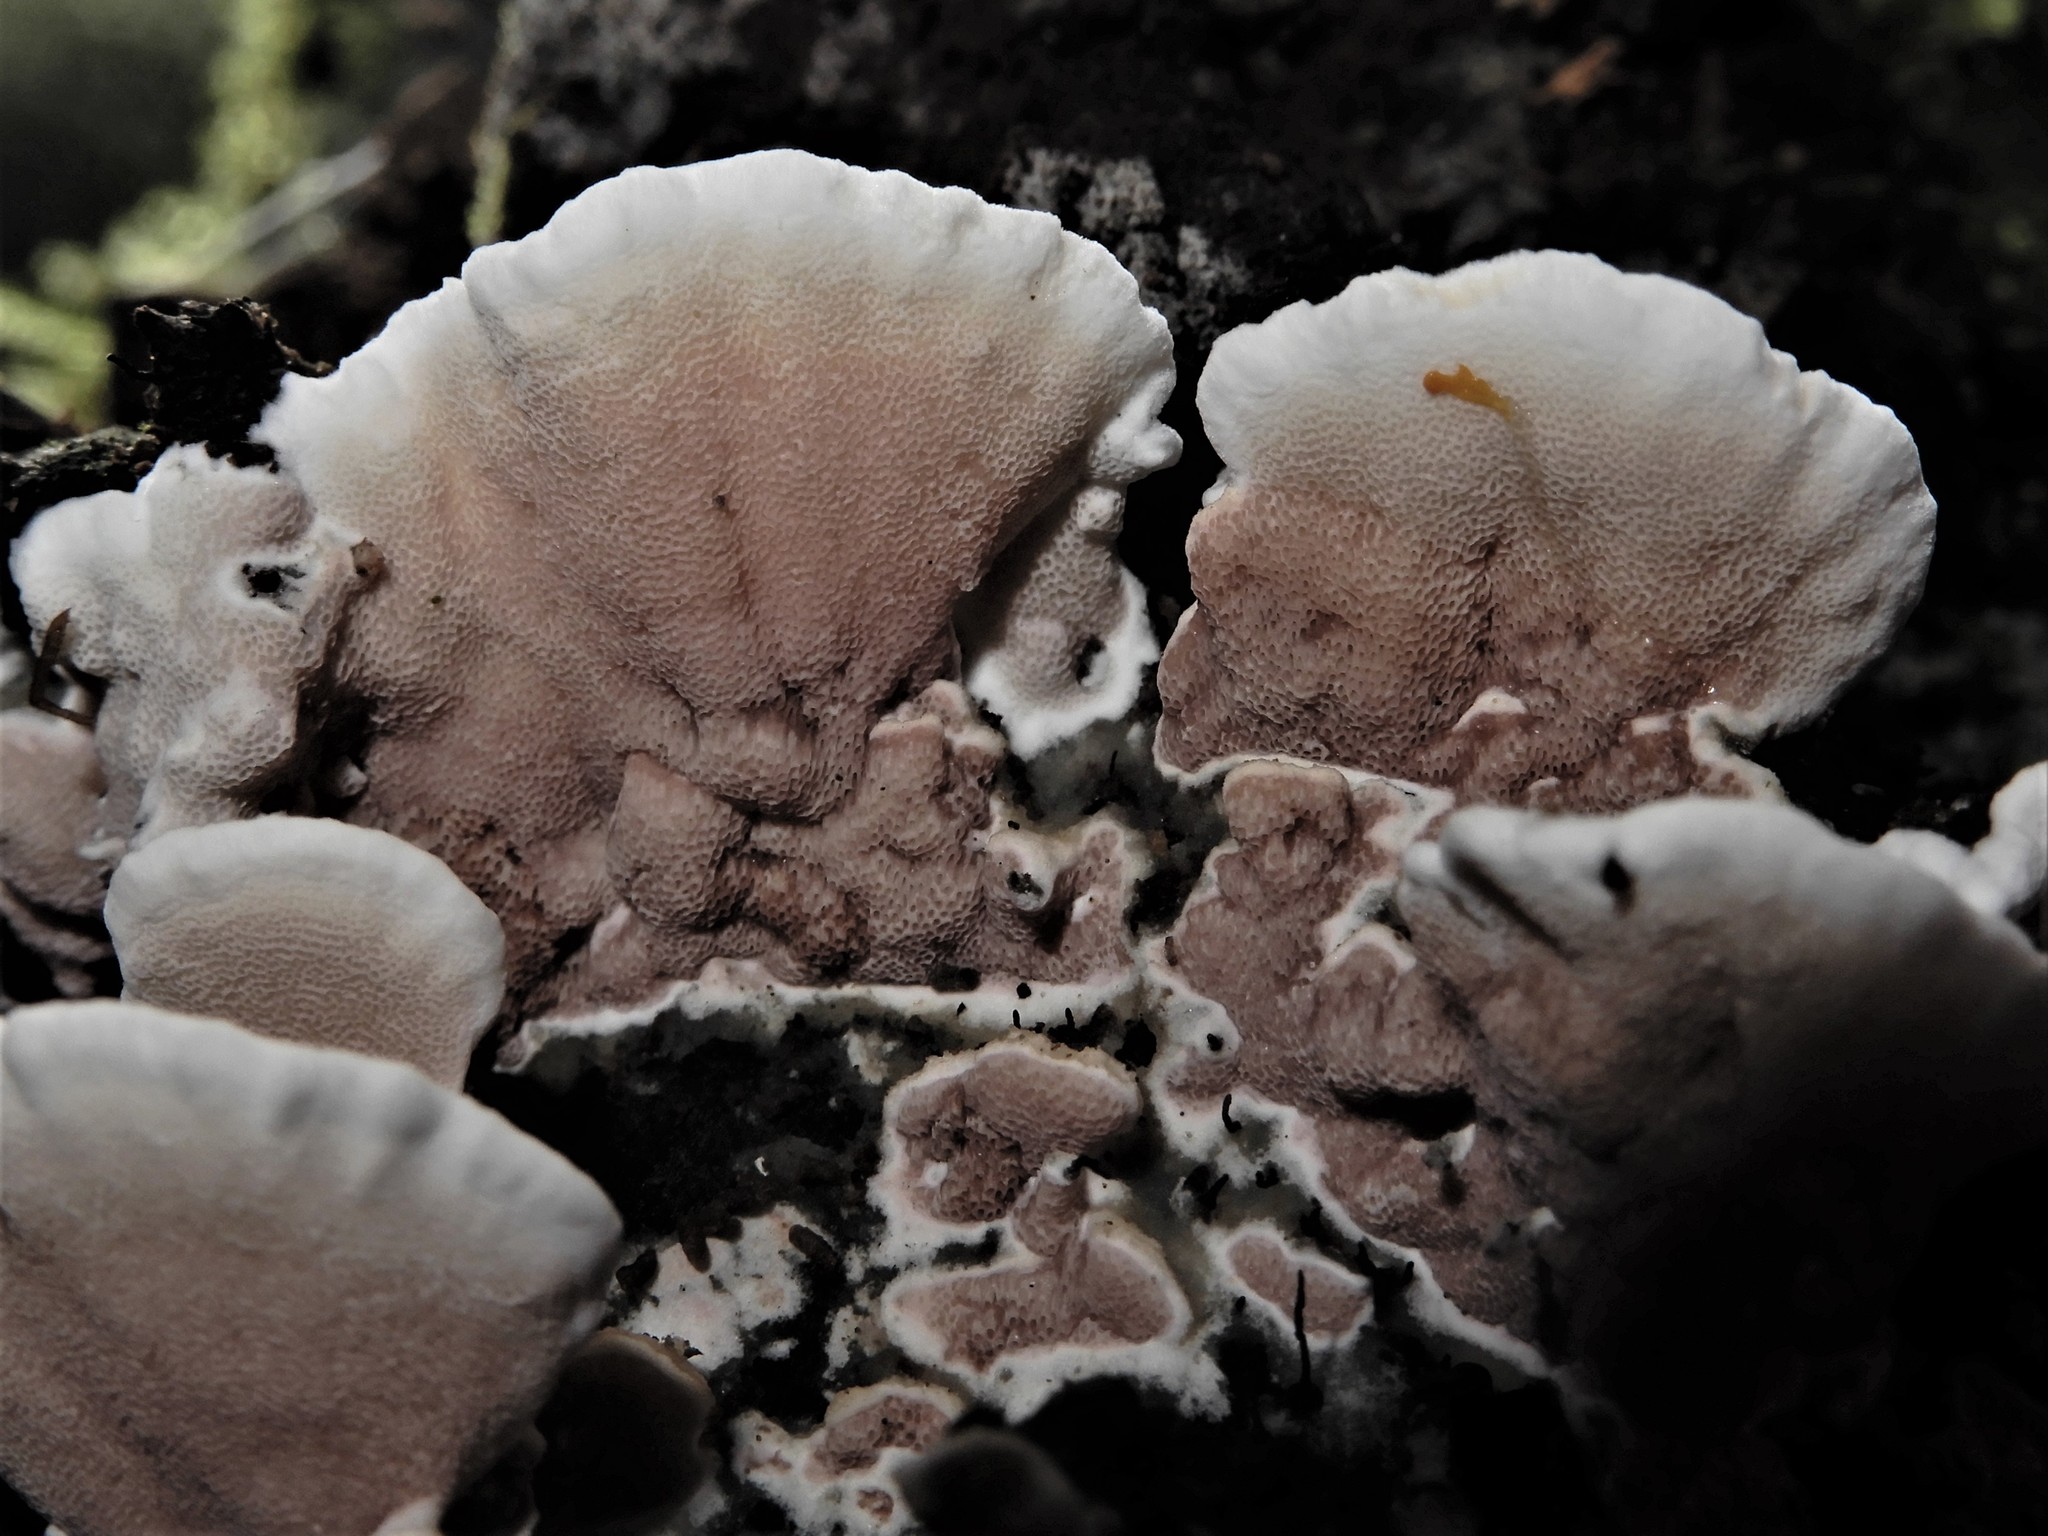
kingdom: Fungi
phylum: Basidiomycota
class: Agaricomycetes
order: Polyporales
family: Irpicaceae
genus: Vitreoporus
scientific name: Vitreoporus dichrous
